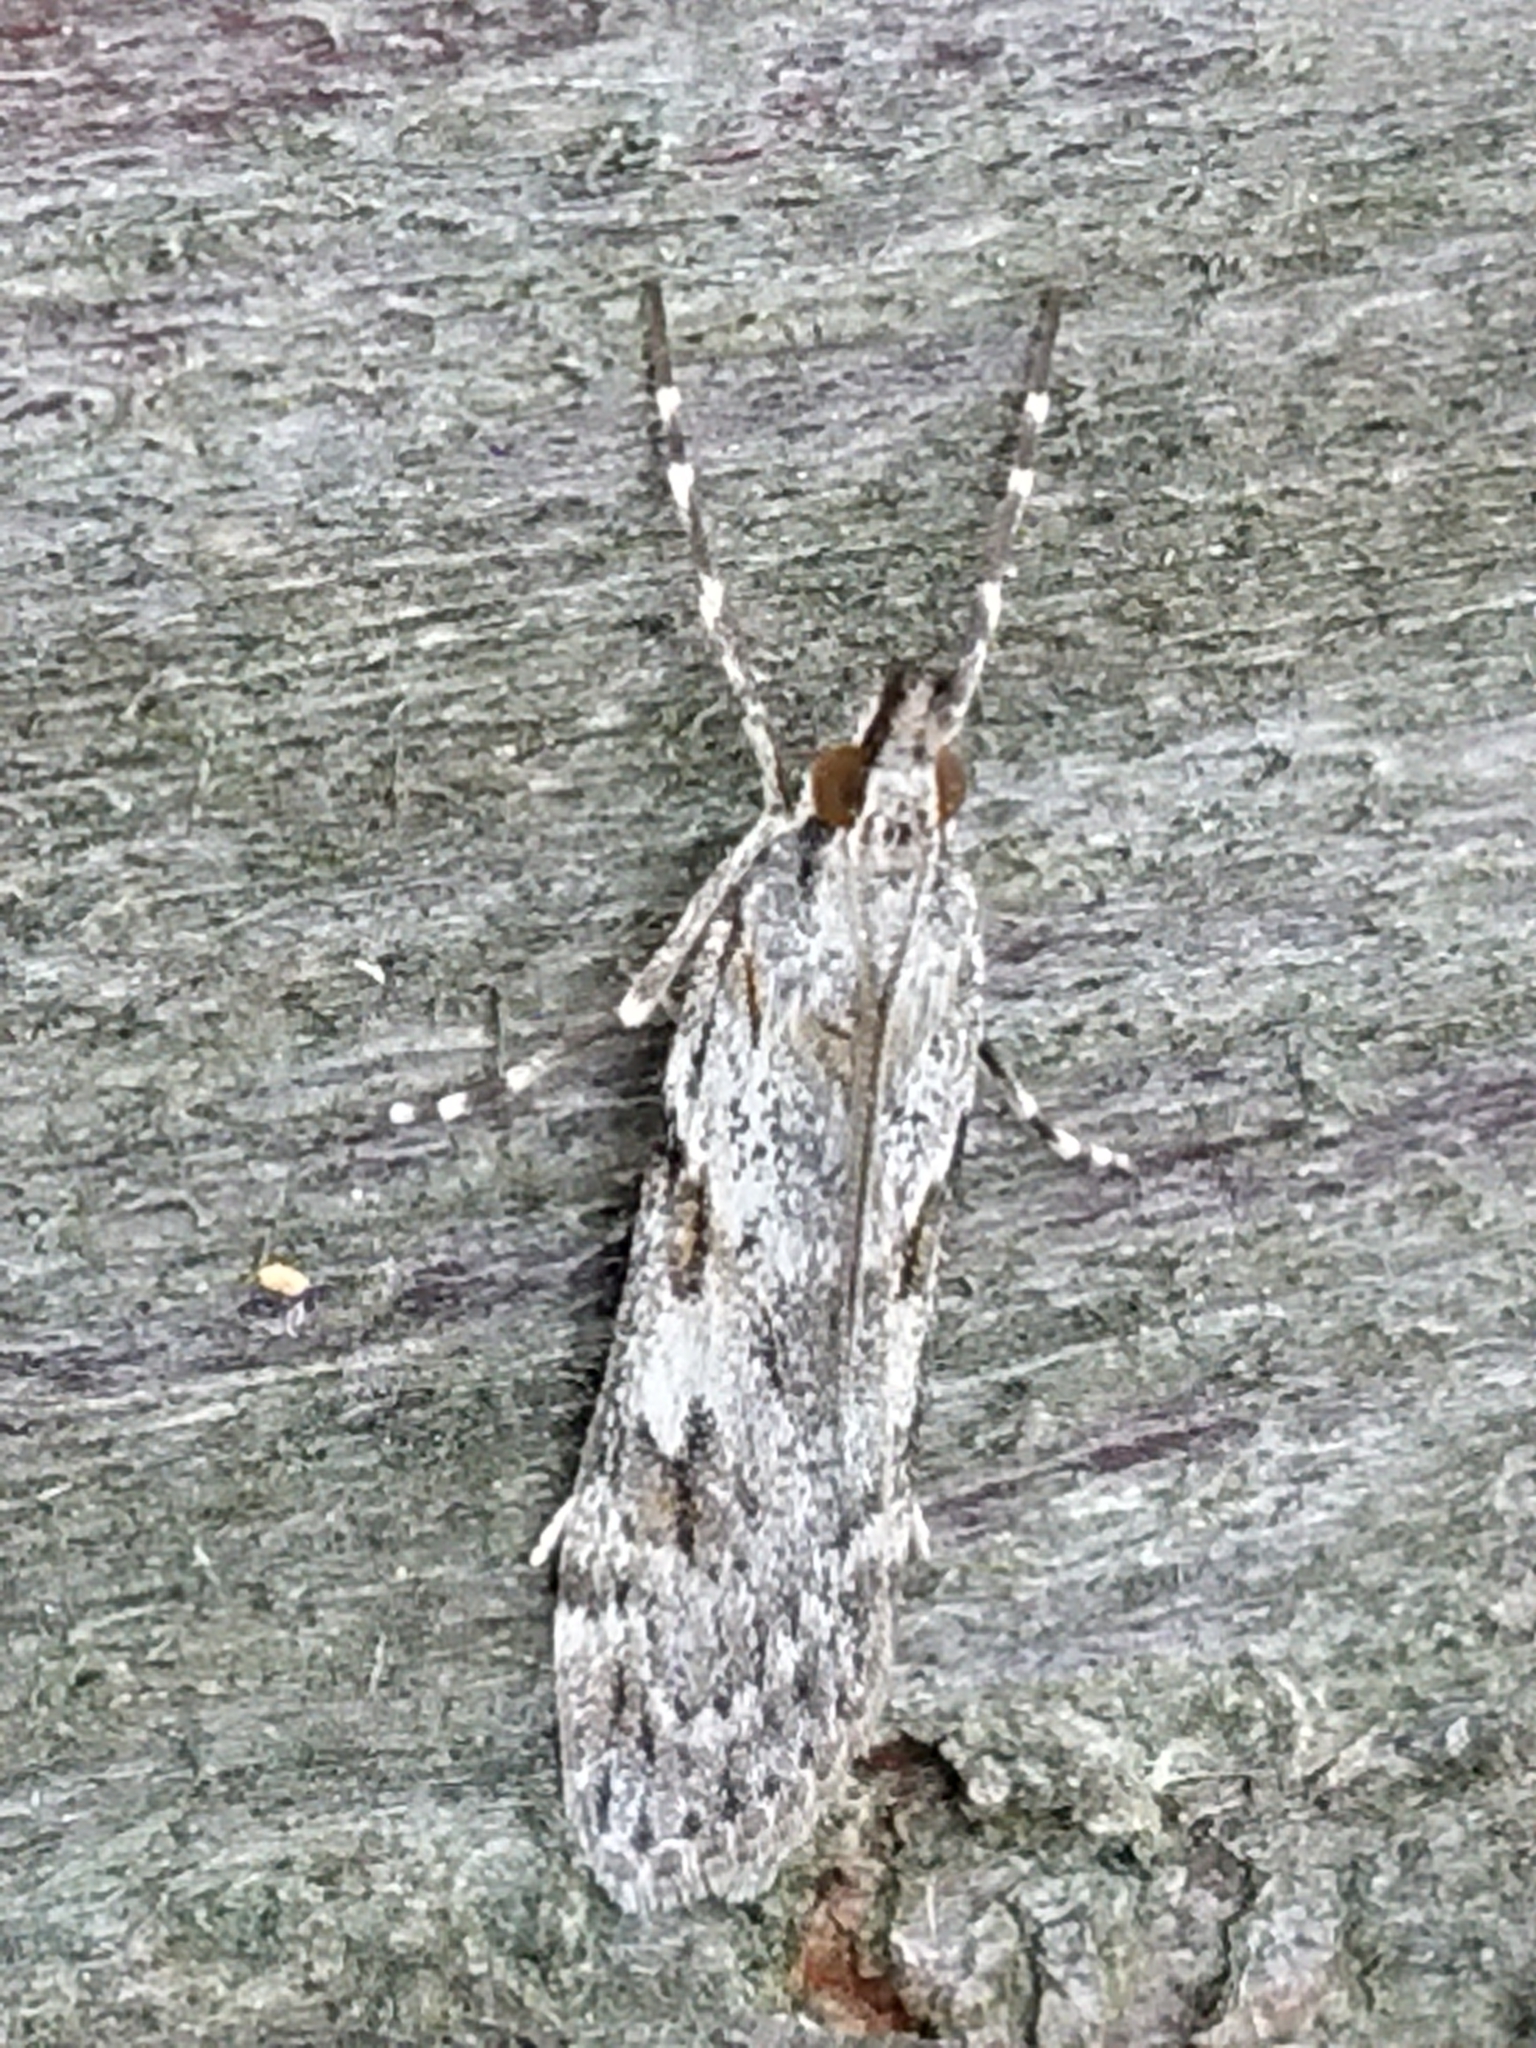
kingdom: Animalia
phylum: Arthropoda
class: Insecta
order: Lepidoptera
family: Crambidae
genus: Scoparia
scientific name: Scoparia halopis
